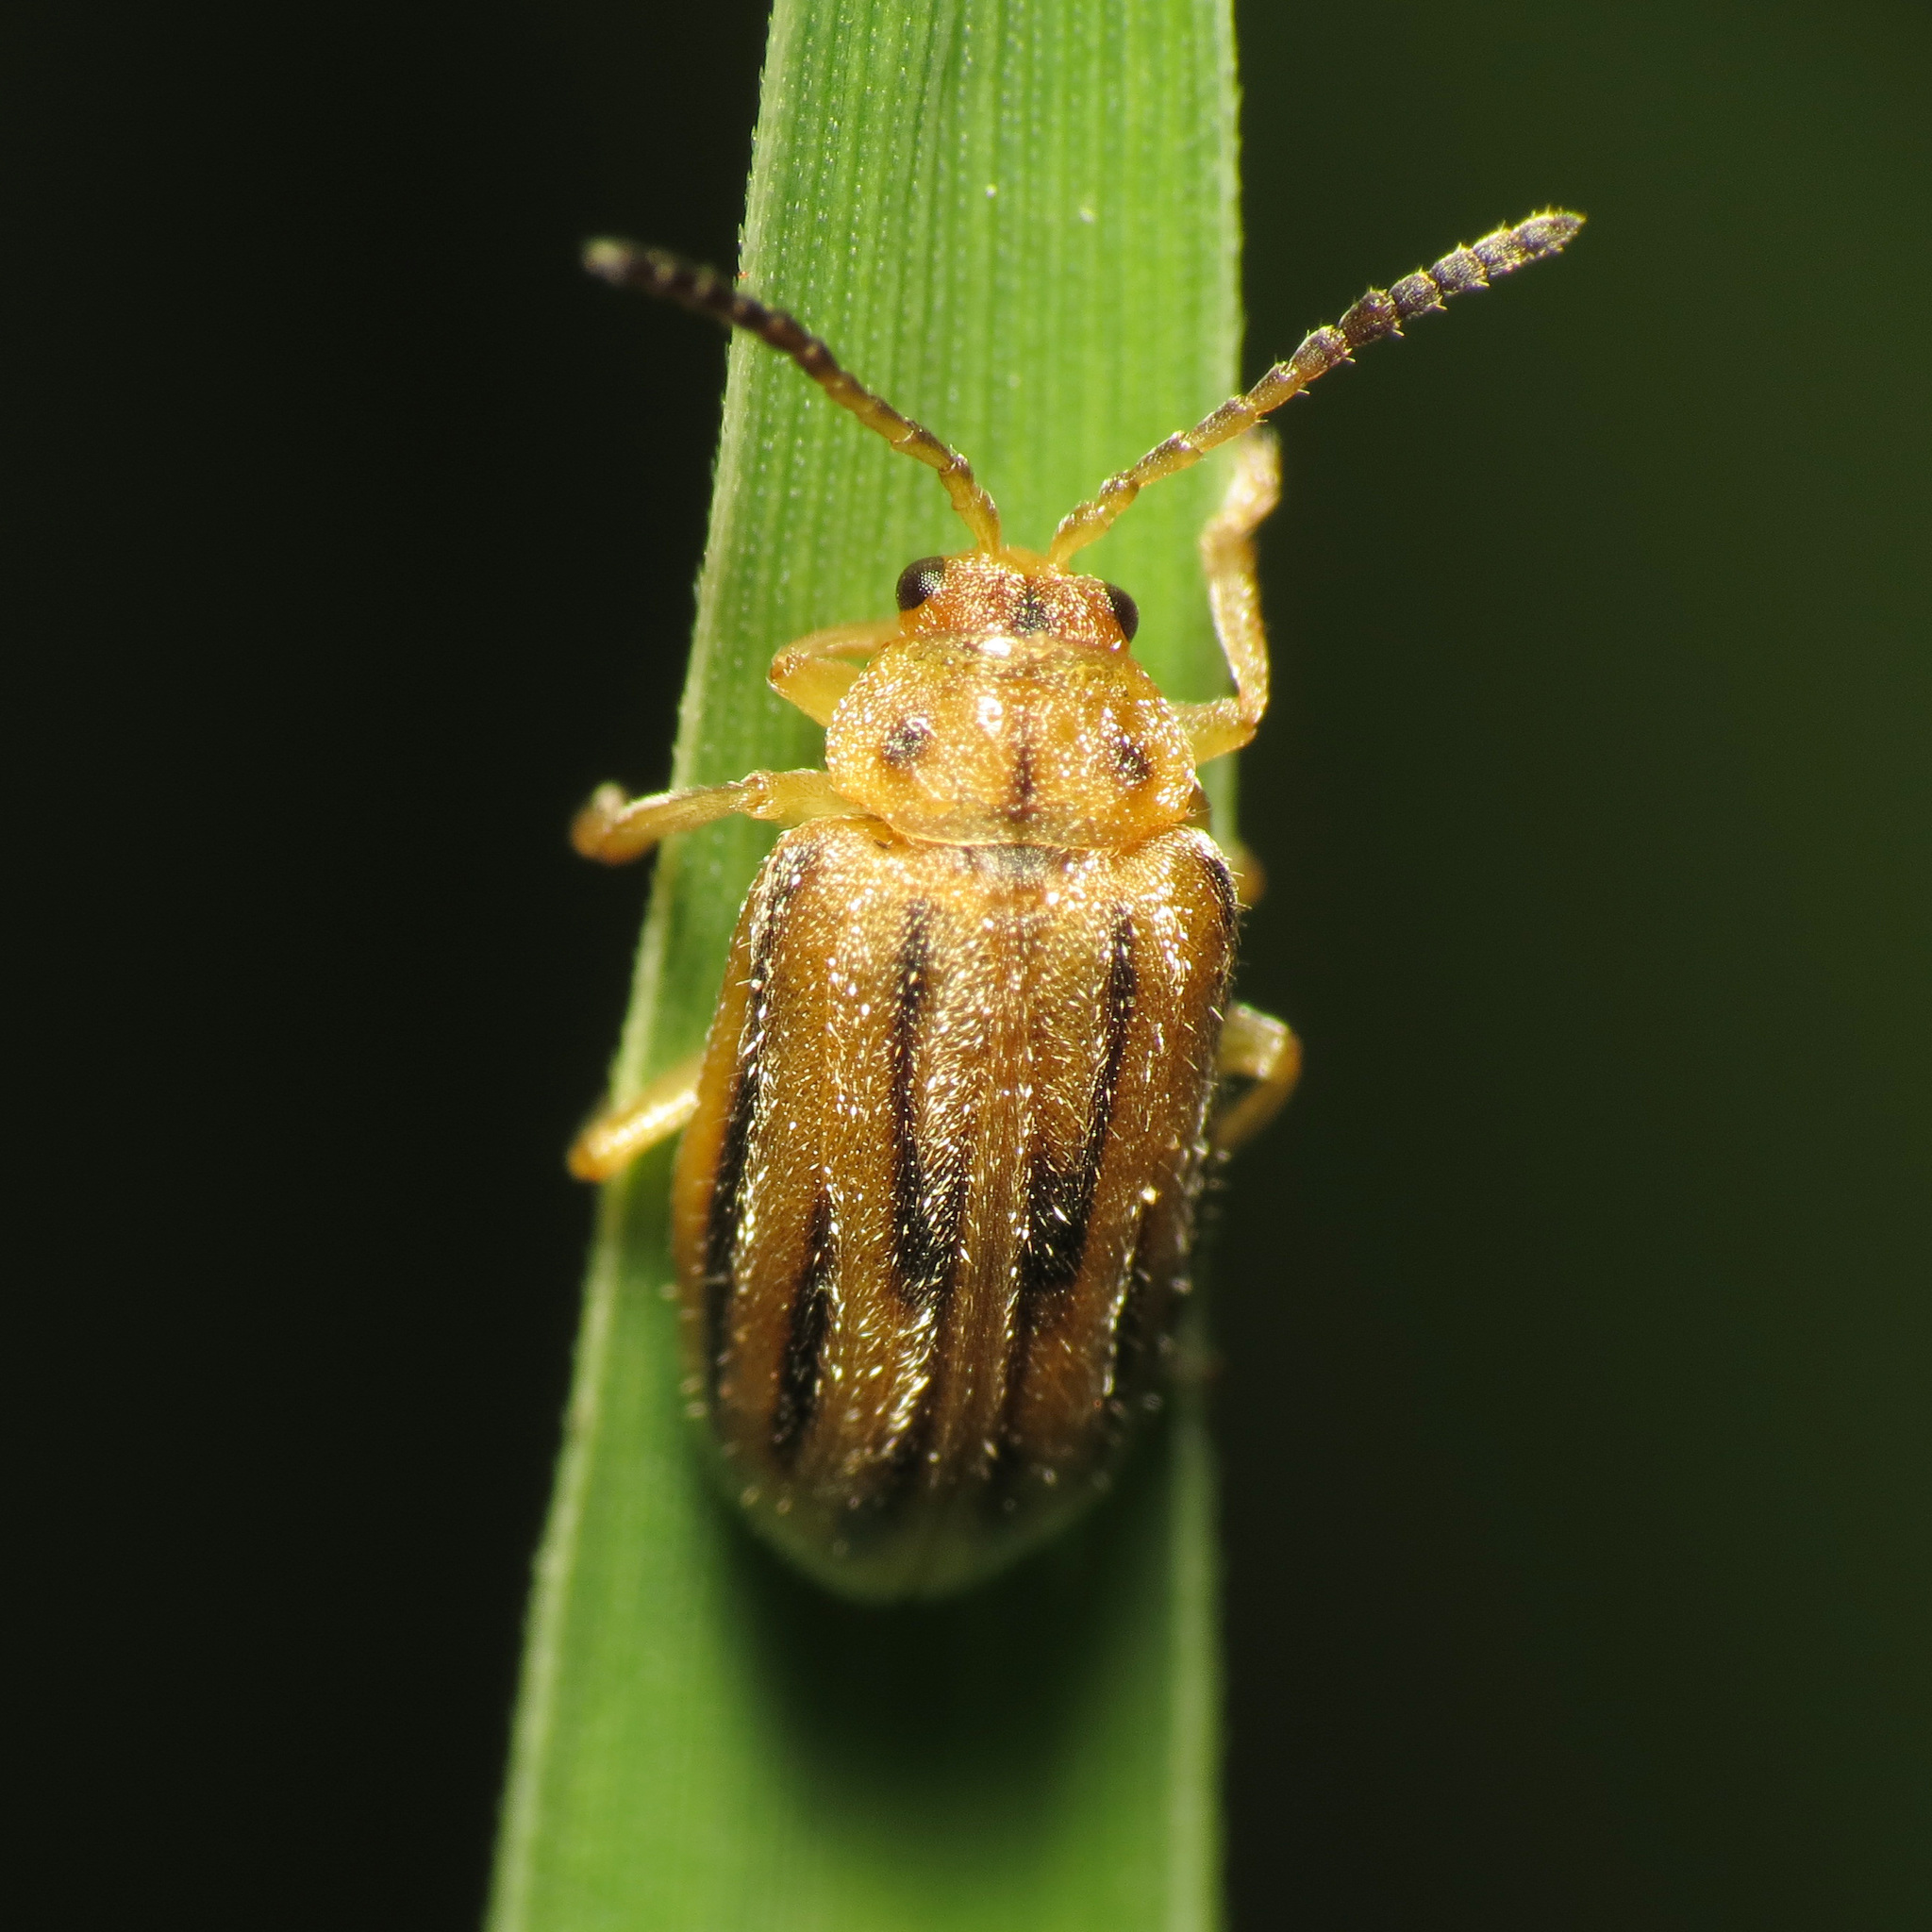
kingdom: Animalia
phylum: Arthropoda
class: Insecta
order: Coleoptera
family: Chrysomelidae
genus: Ophraella
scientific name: Ophraella communa
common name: Ragweed leaf beetle
